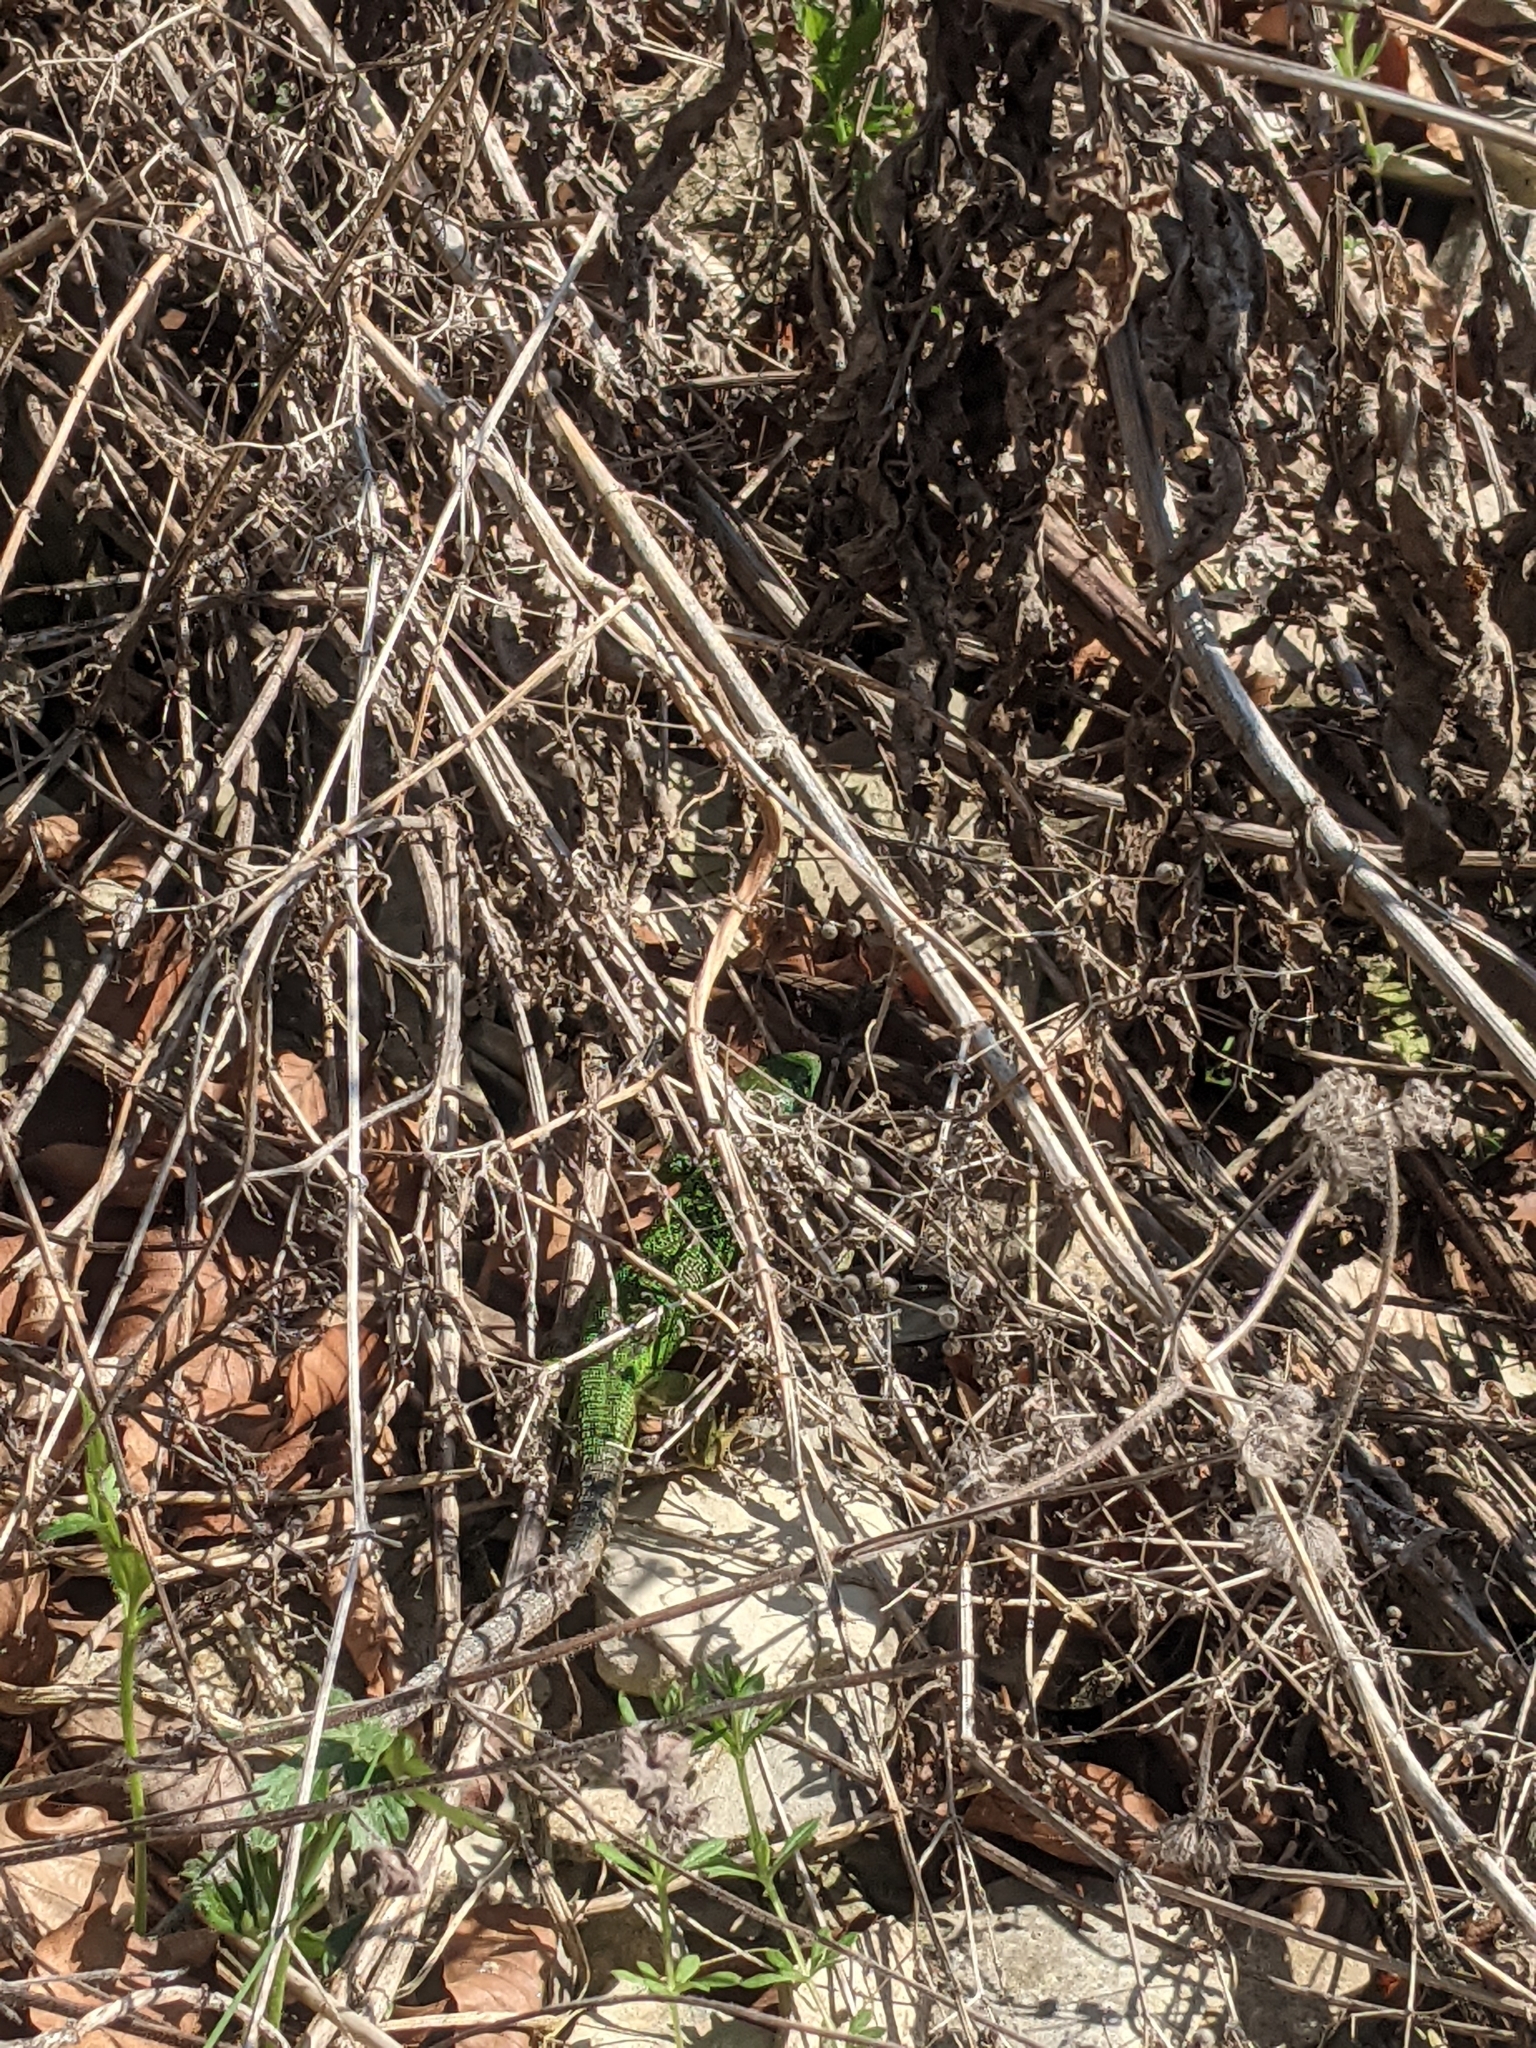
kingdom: Animalia
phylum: Chordata
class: Squamata
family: Lacertidae
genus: Lacerta
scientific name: Lacerta viridis
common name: European green lizard
